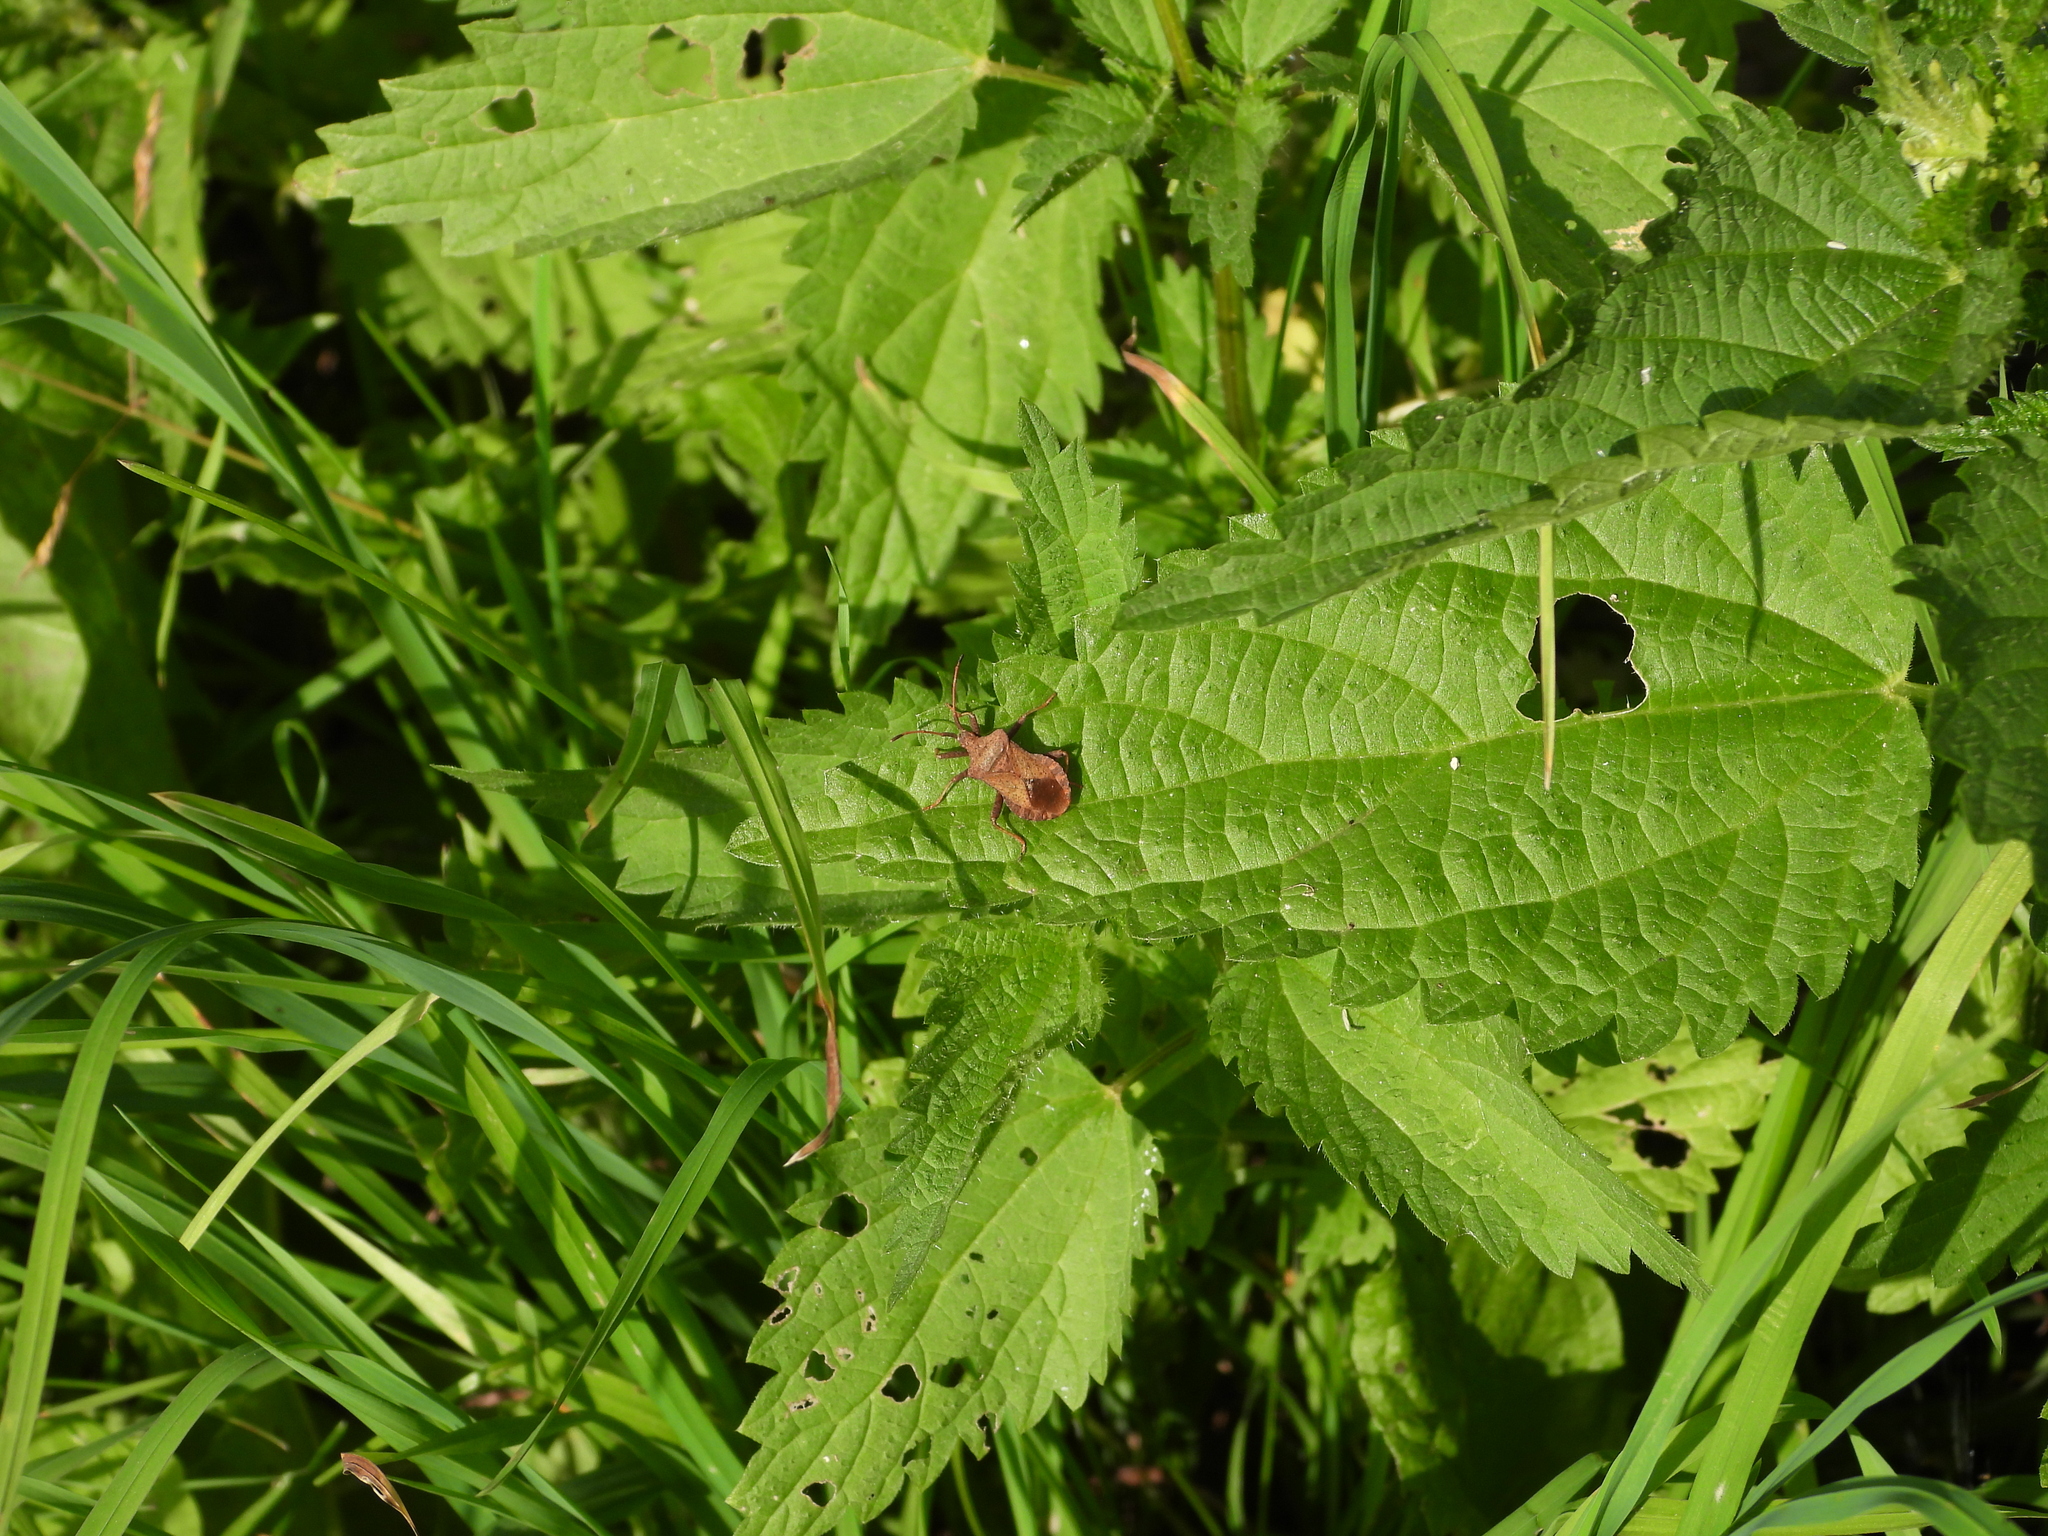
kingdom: Animalia
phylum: Arthropoda
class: Insecta
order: Hemiptera
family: Coreidae
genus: Coreus
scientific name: Coreus marginatus
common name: Dock bug
